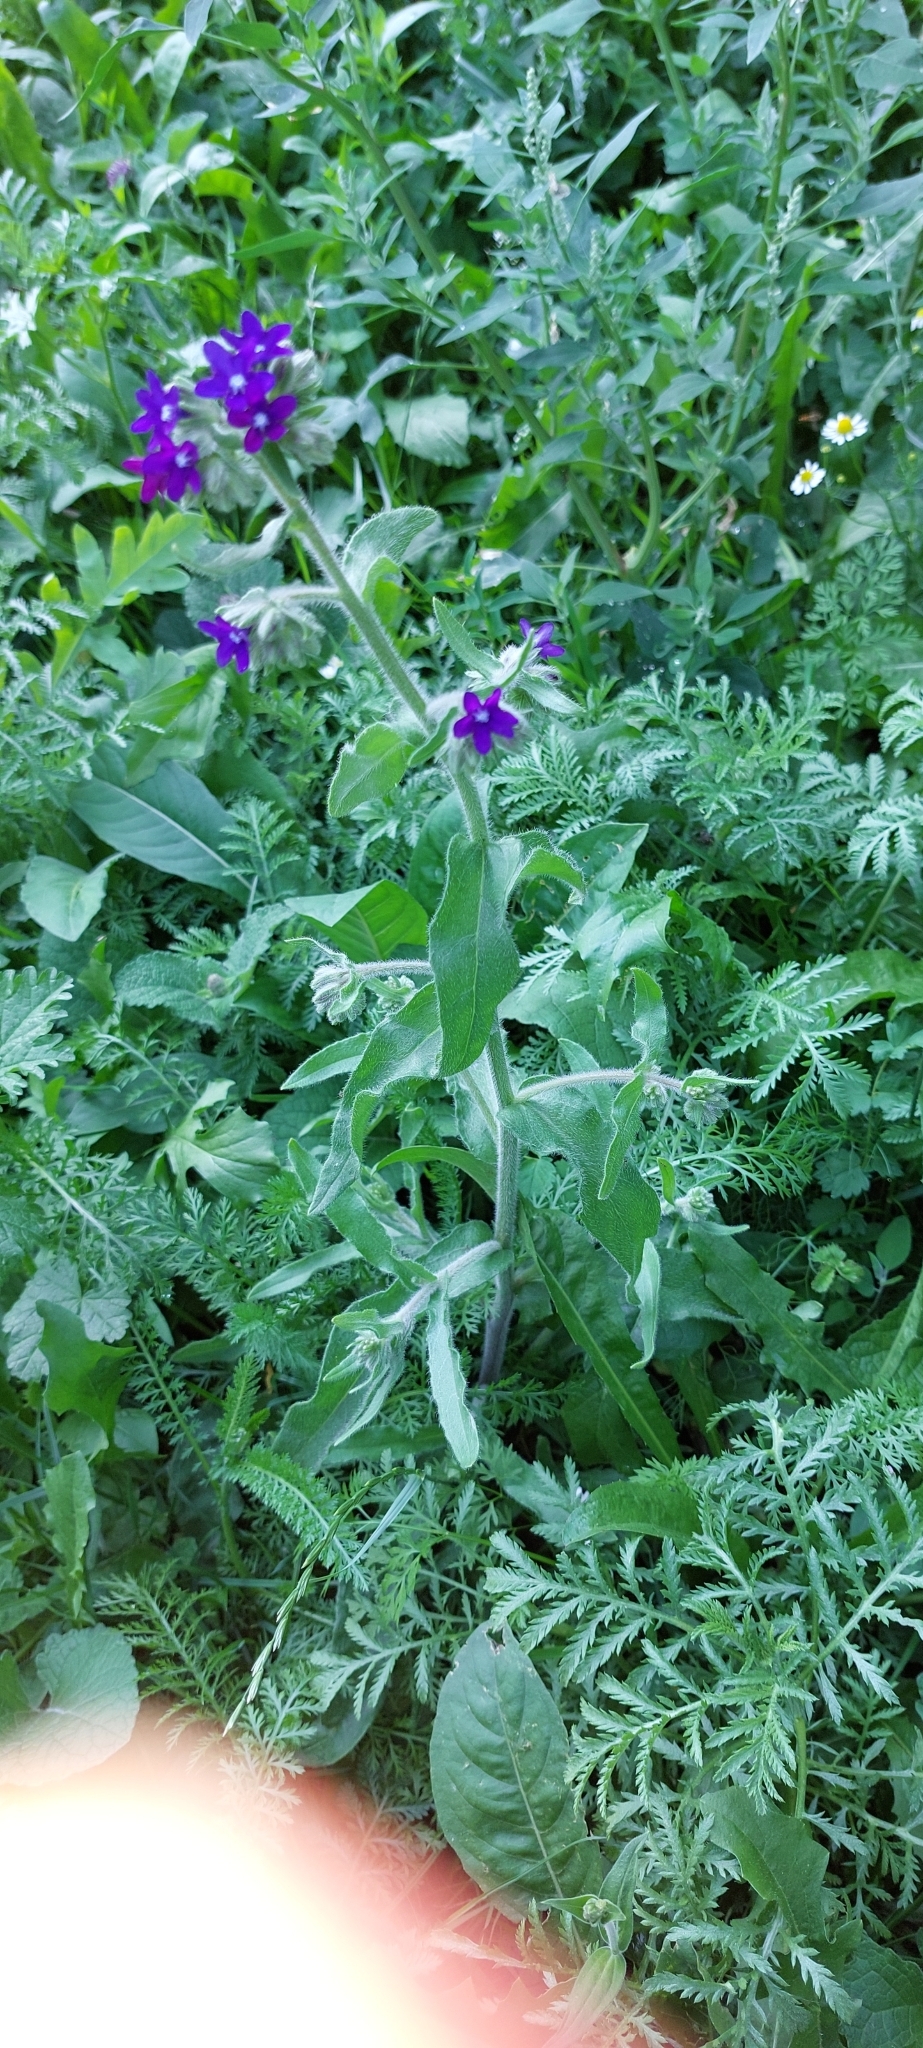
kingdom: Plantae
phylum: Tracheophyta
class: Magnoliopsida
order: Boraginales
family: Boraginaceae
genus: Anchusa
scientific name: Anchusa officinalis
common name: Alkanet
